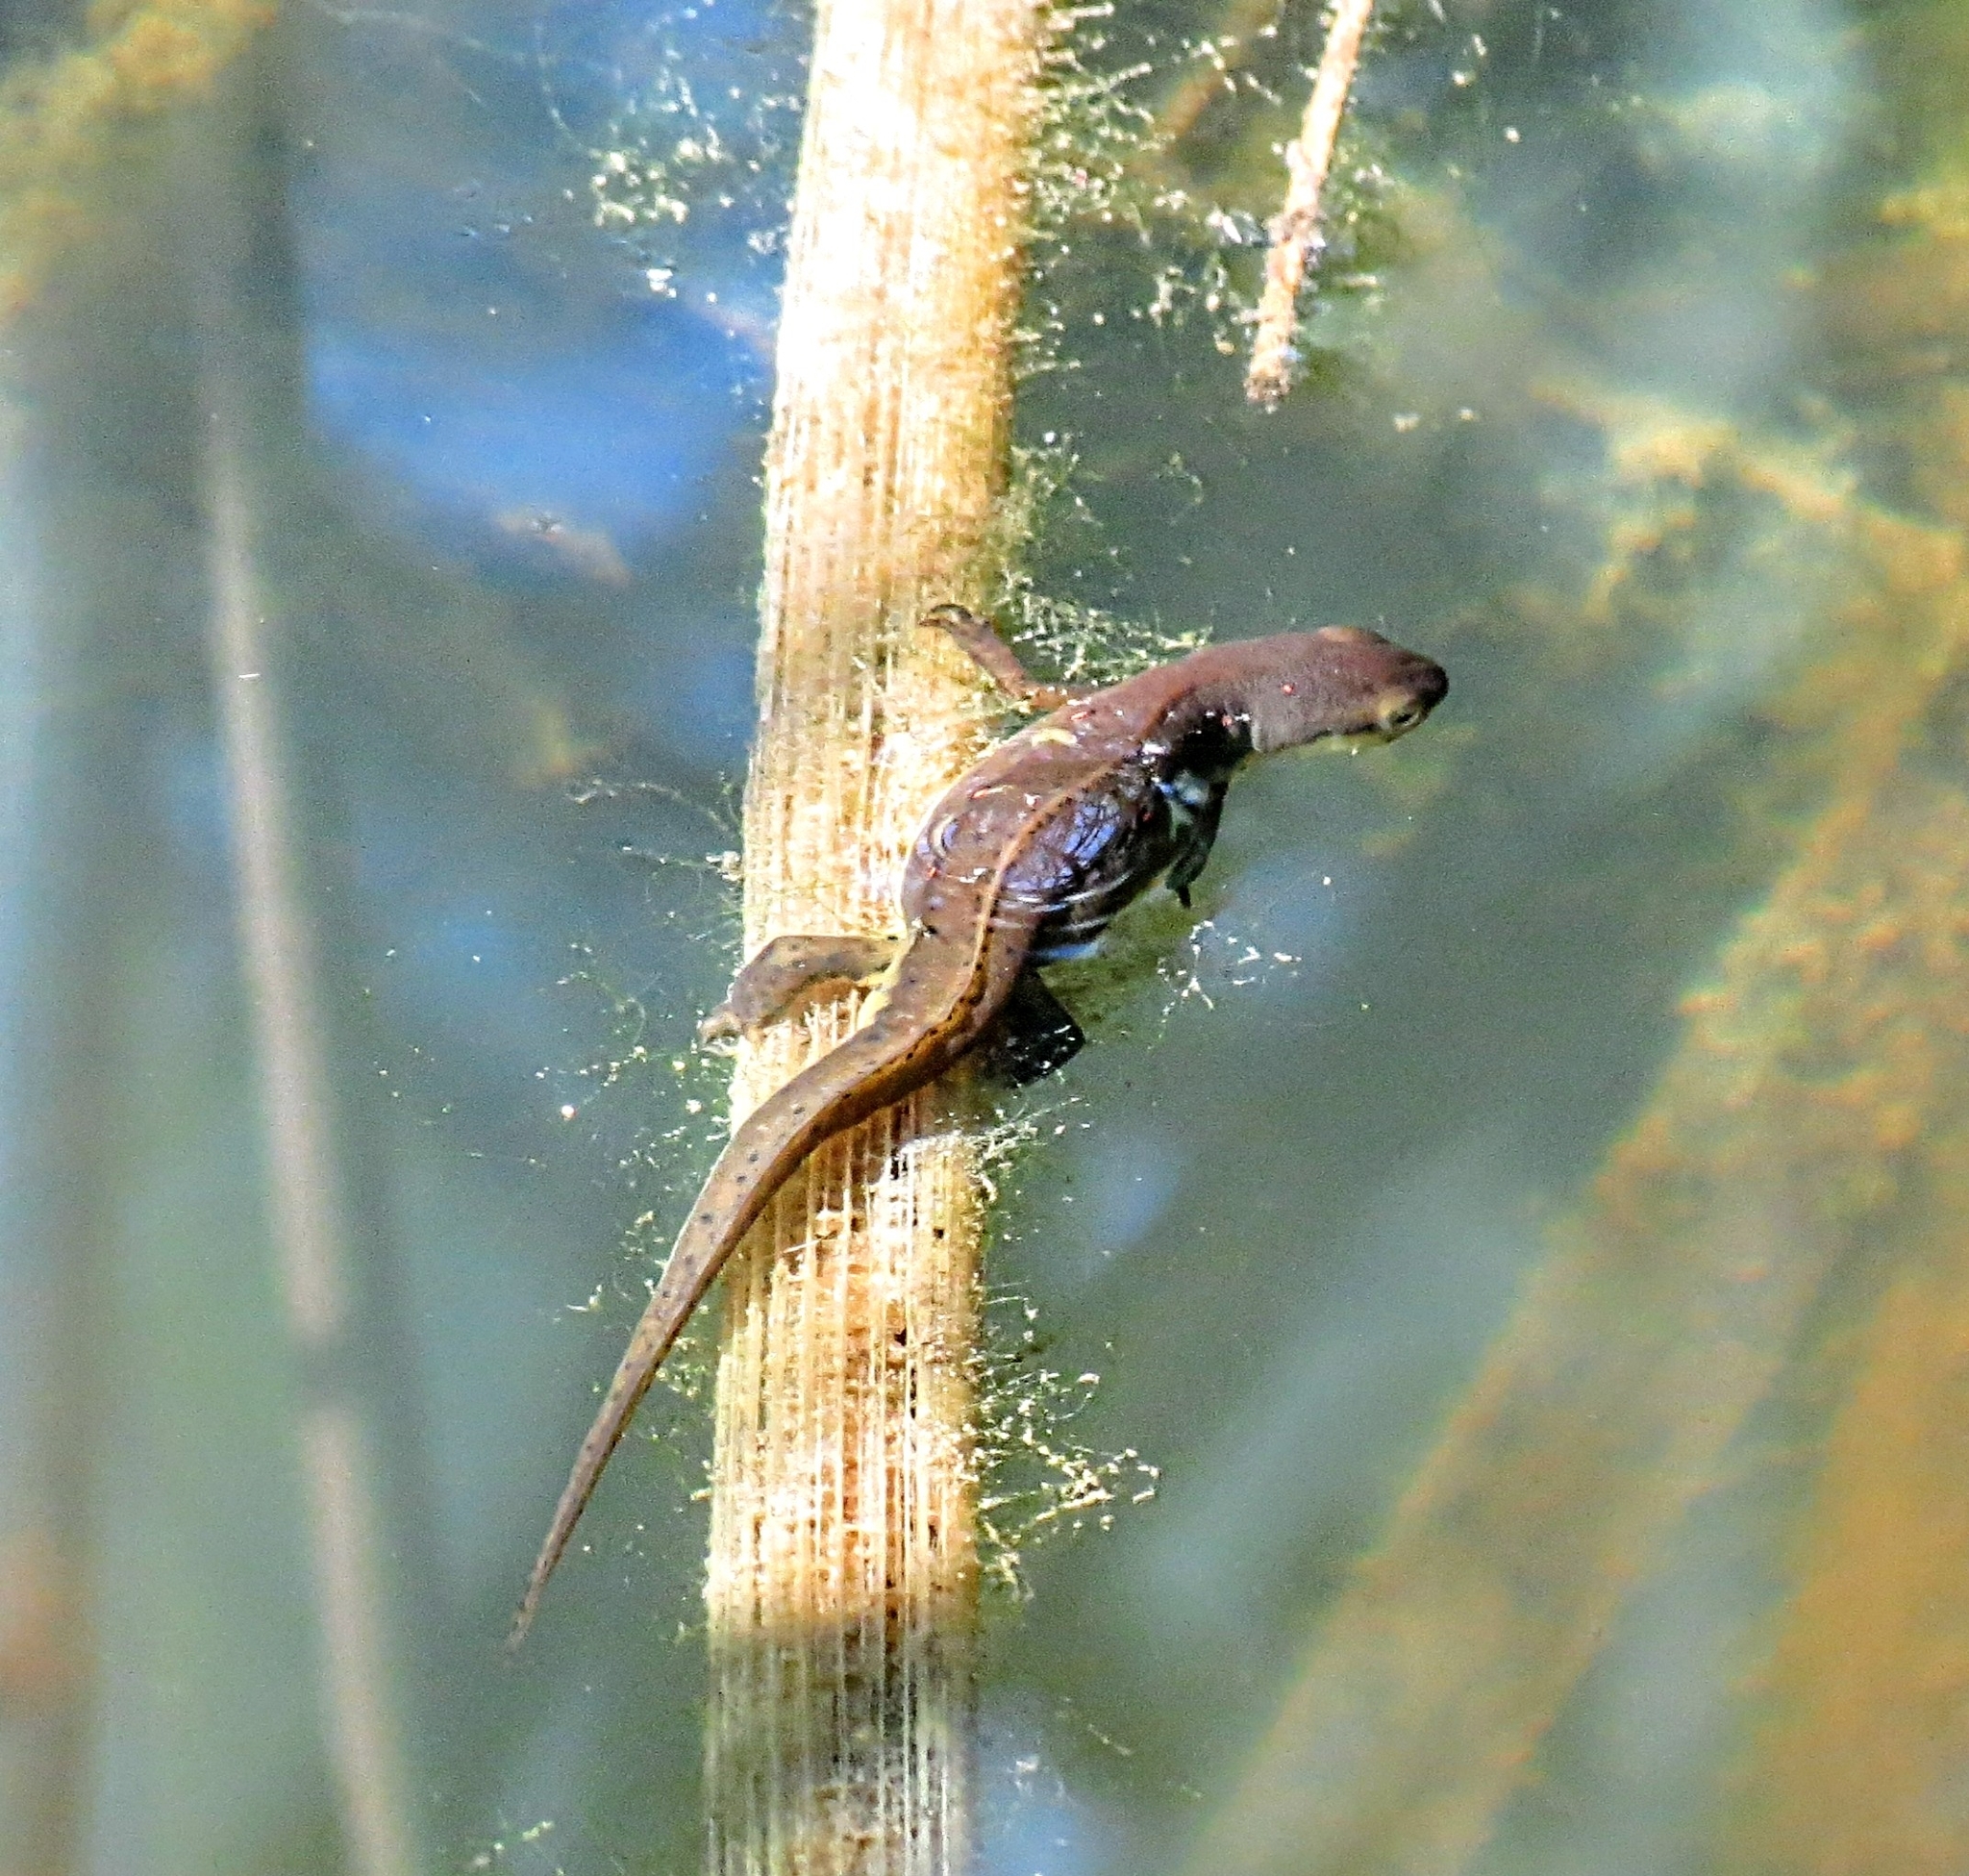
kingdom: Animalia
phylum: Chordata
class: Amphibia
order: Caudata
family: Salamandridae
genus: Notophthalmus
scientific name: Notophthalmus viridescens
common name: Eastern newt
